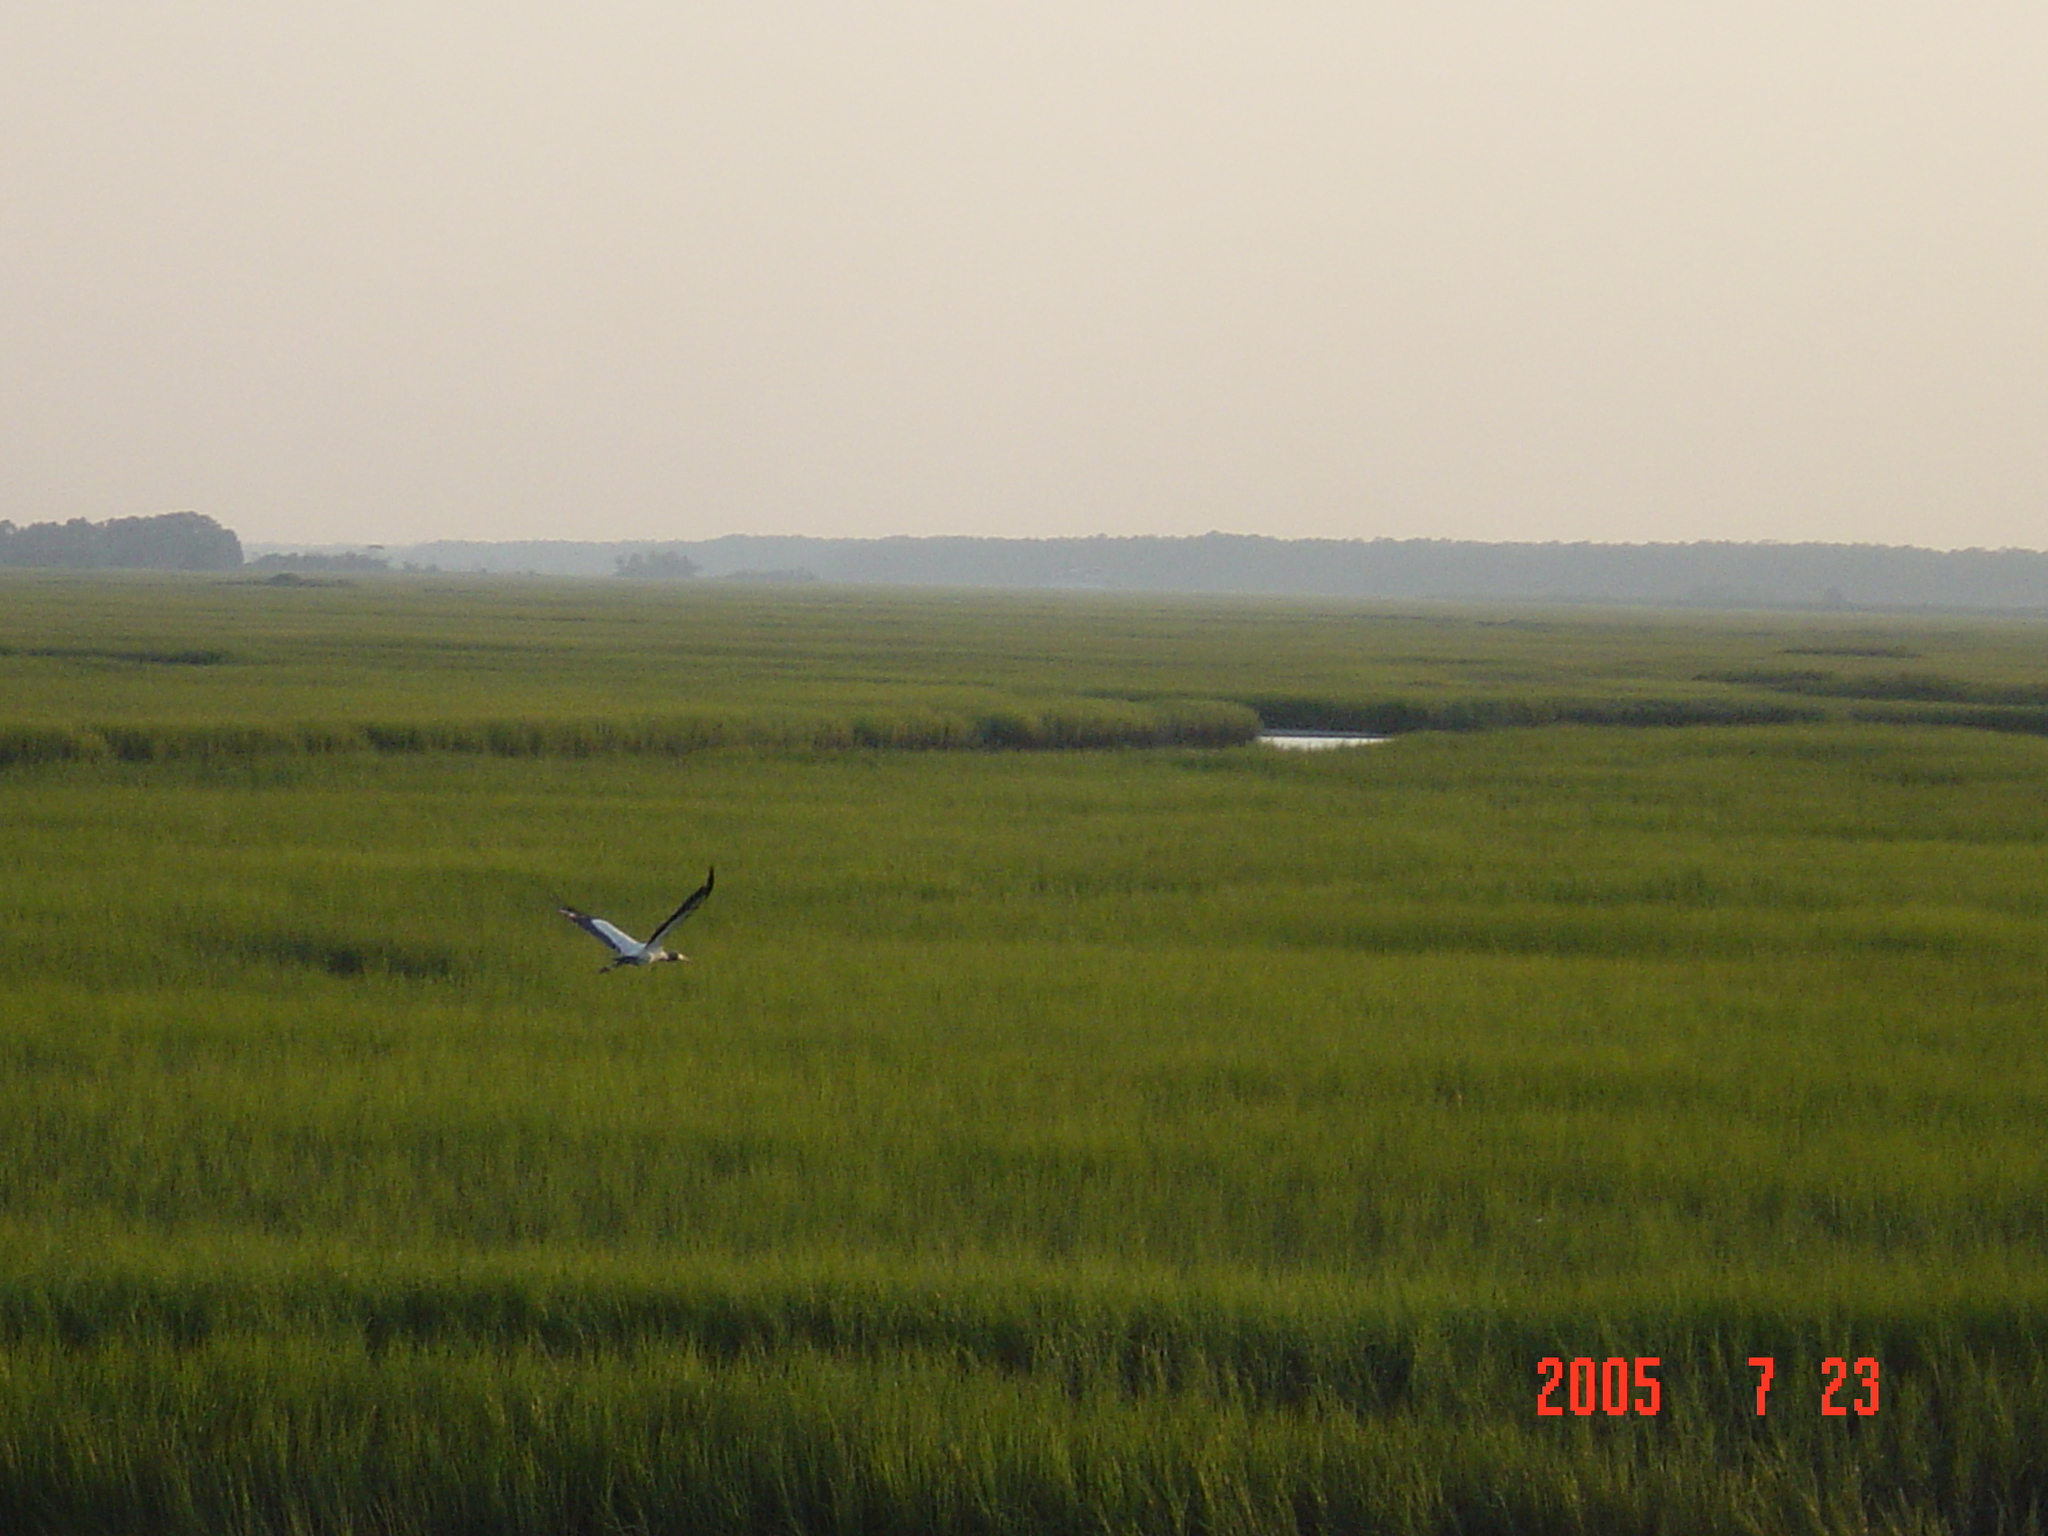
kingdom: Animalia
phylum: Chordata
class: Aves
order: Ciconiiformes
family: Ciconiidae
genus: Mycteria
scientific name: Mycteria americana
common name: Wood stork
